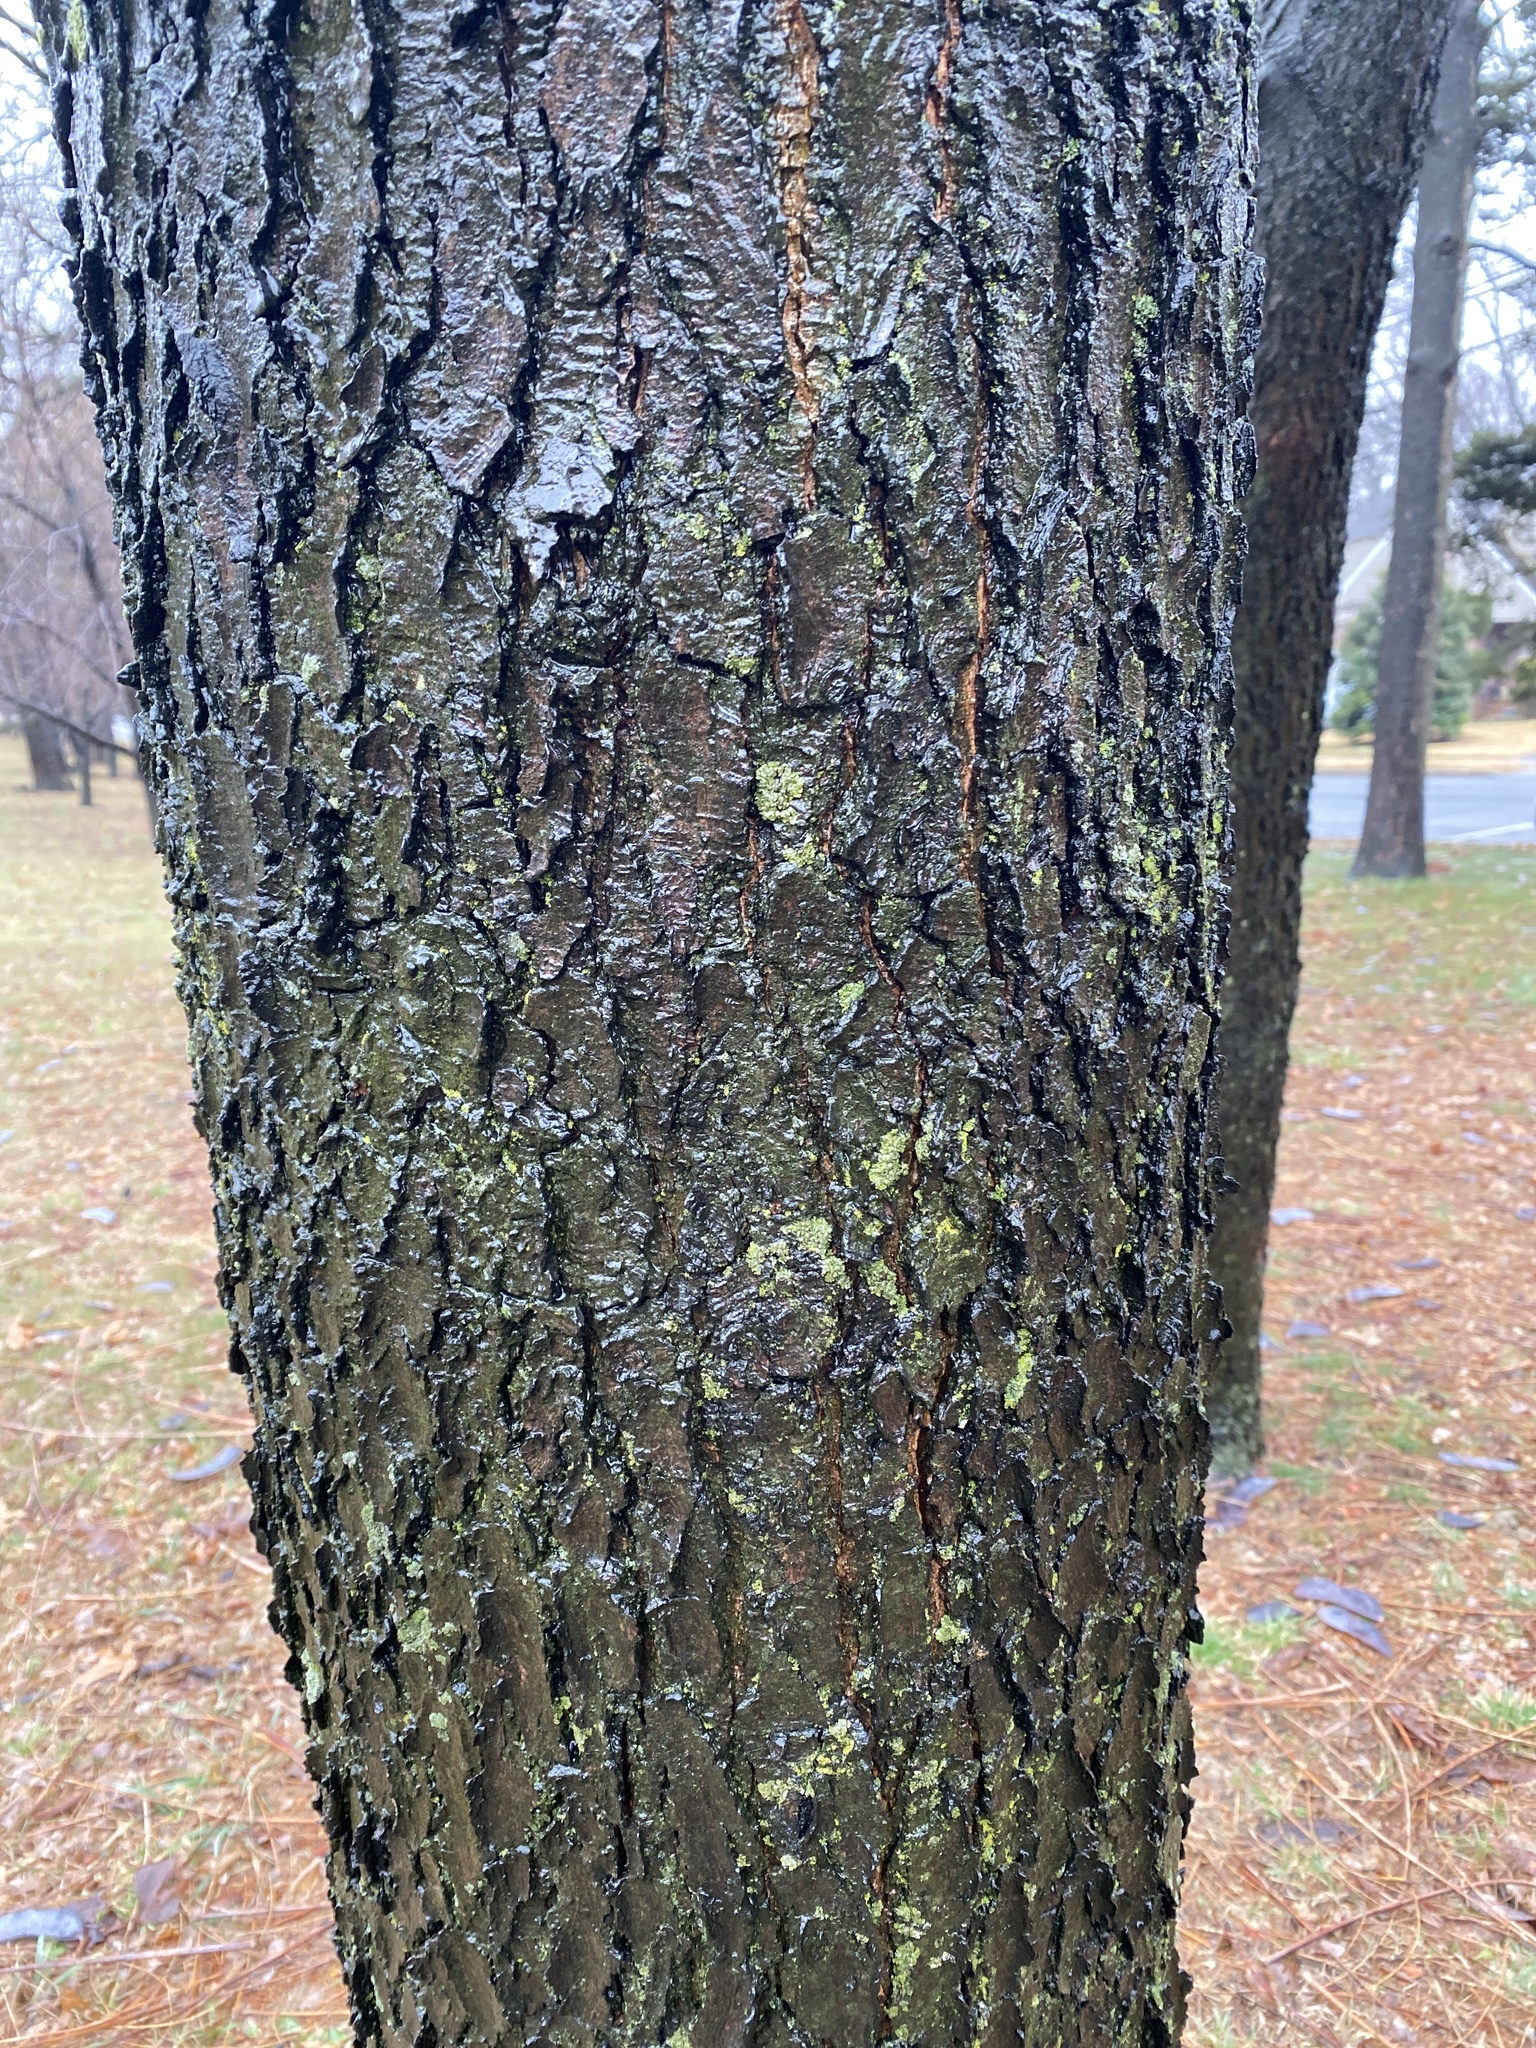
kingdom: Plantae
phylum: Tracheophyta
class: Magnoliopsida
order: Fabales
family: Fabaceae
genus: Gymnocladus
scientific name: Gymnocladus dioicus
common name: Kentucky coffee-tree
